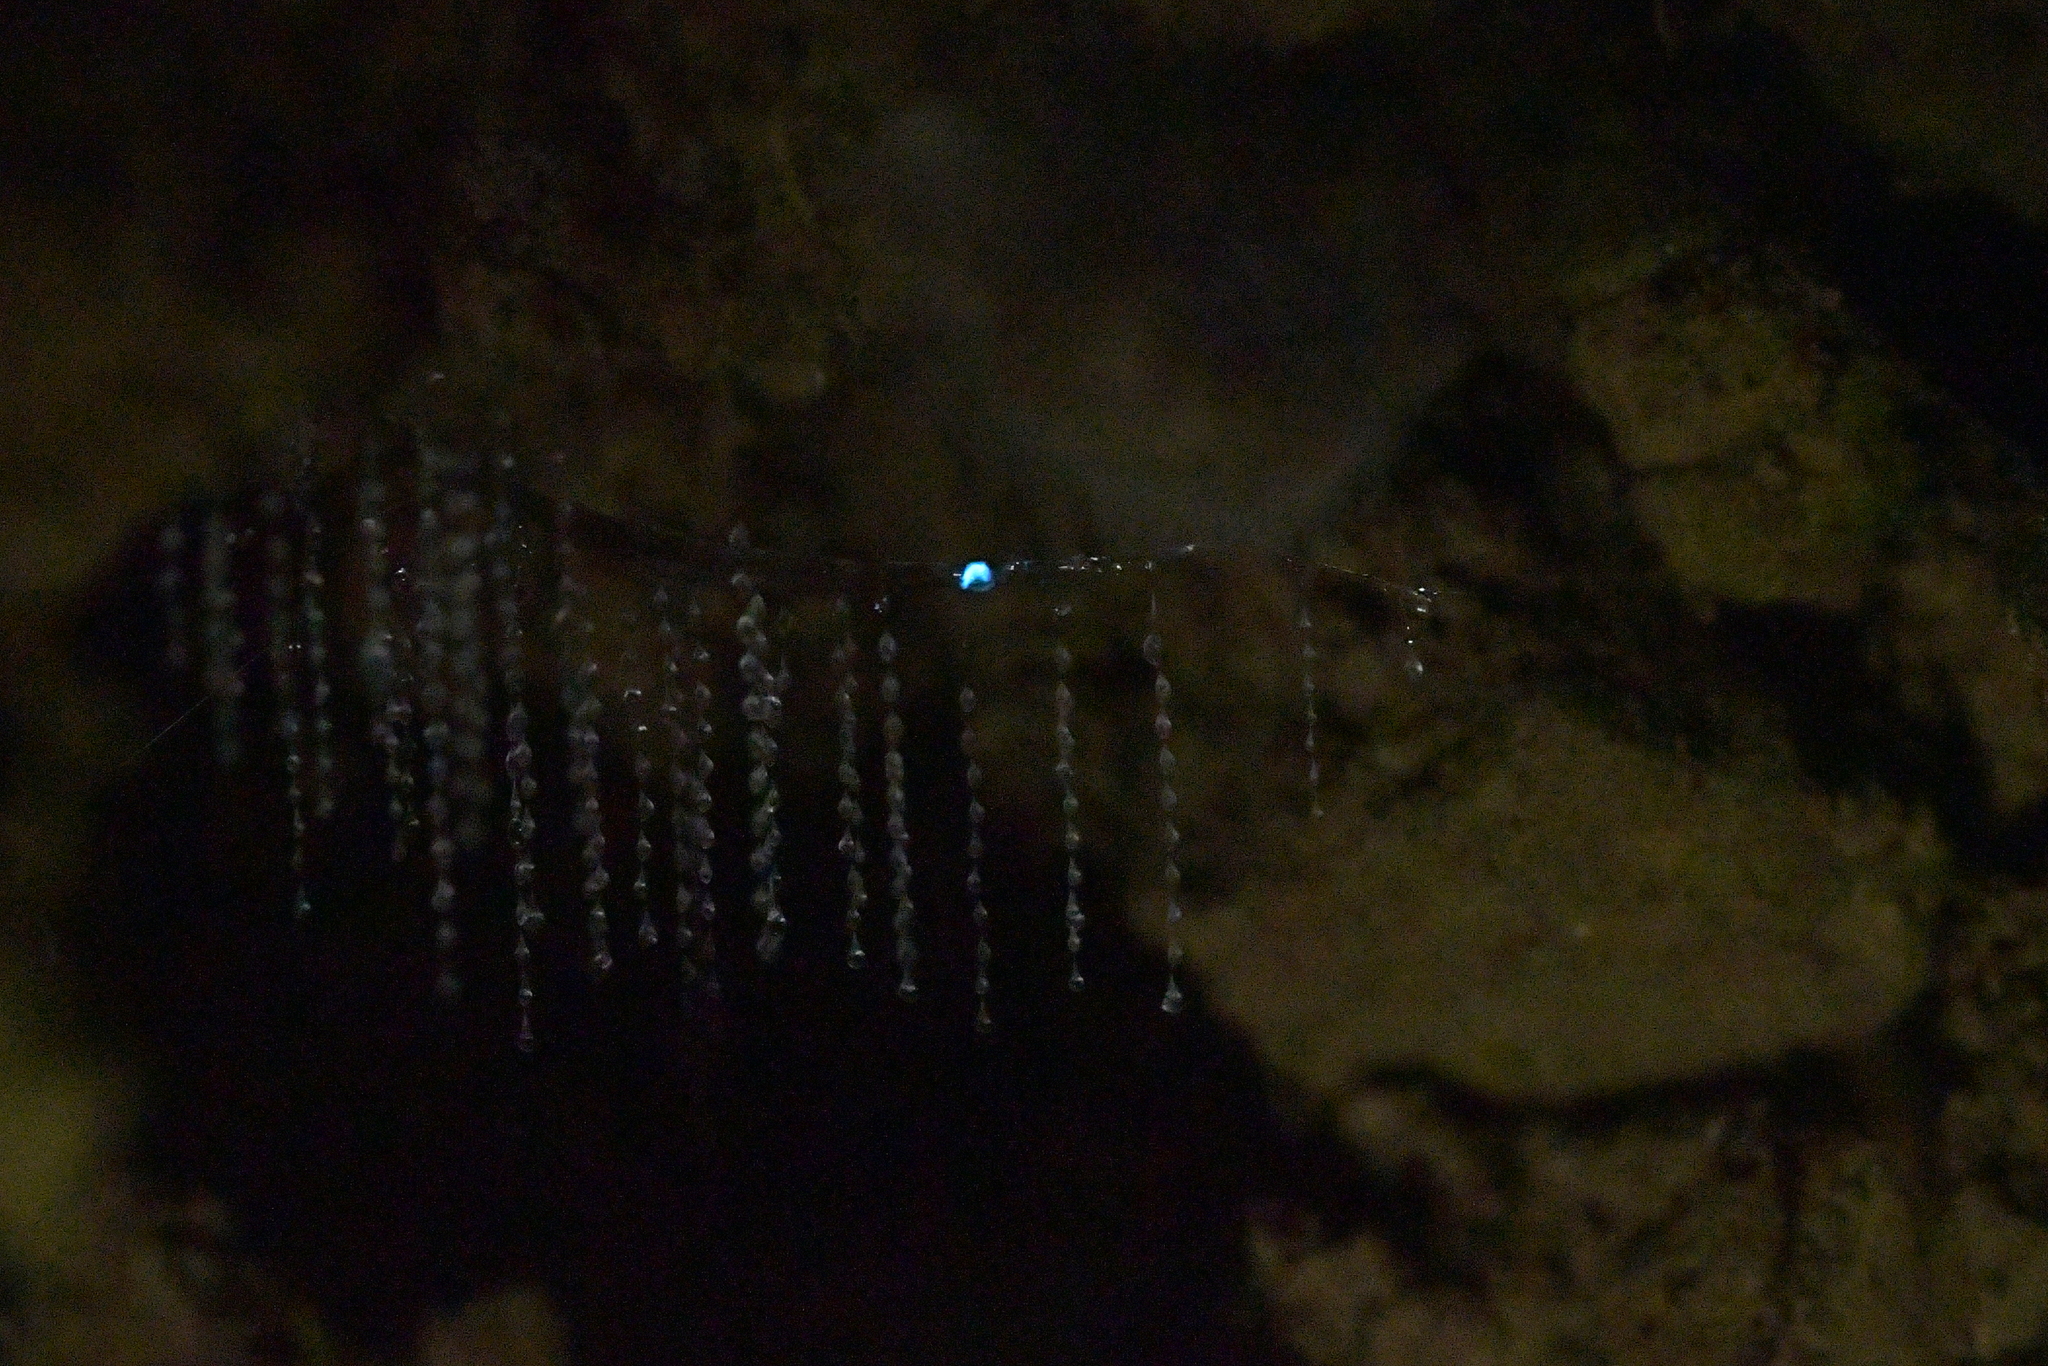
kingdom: Animalia
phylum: Arthropoda
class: Insecta
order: Diptera
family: Keroplatidae
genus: Arachnocampa
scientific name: Arachnocampa luminosa
